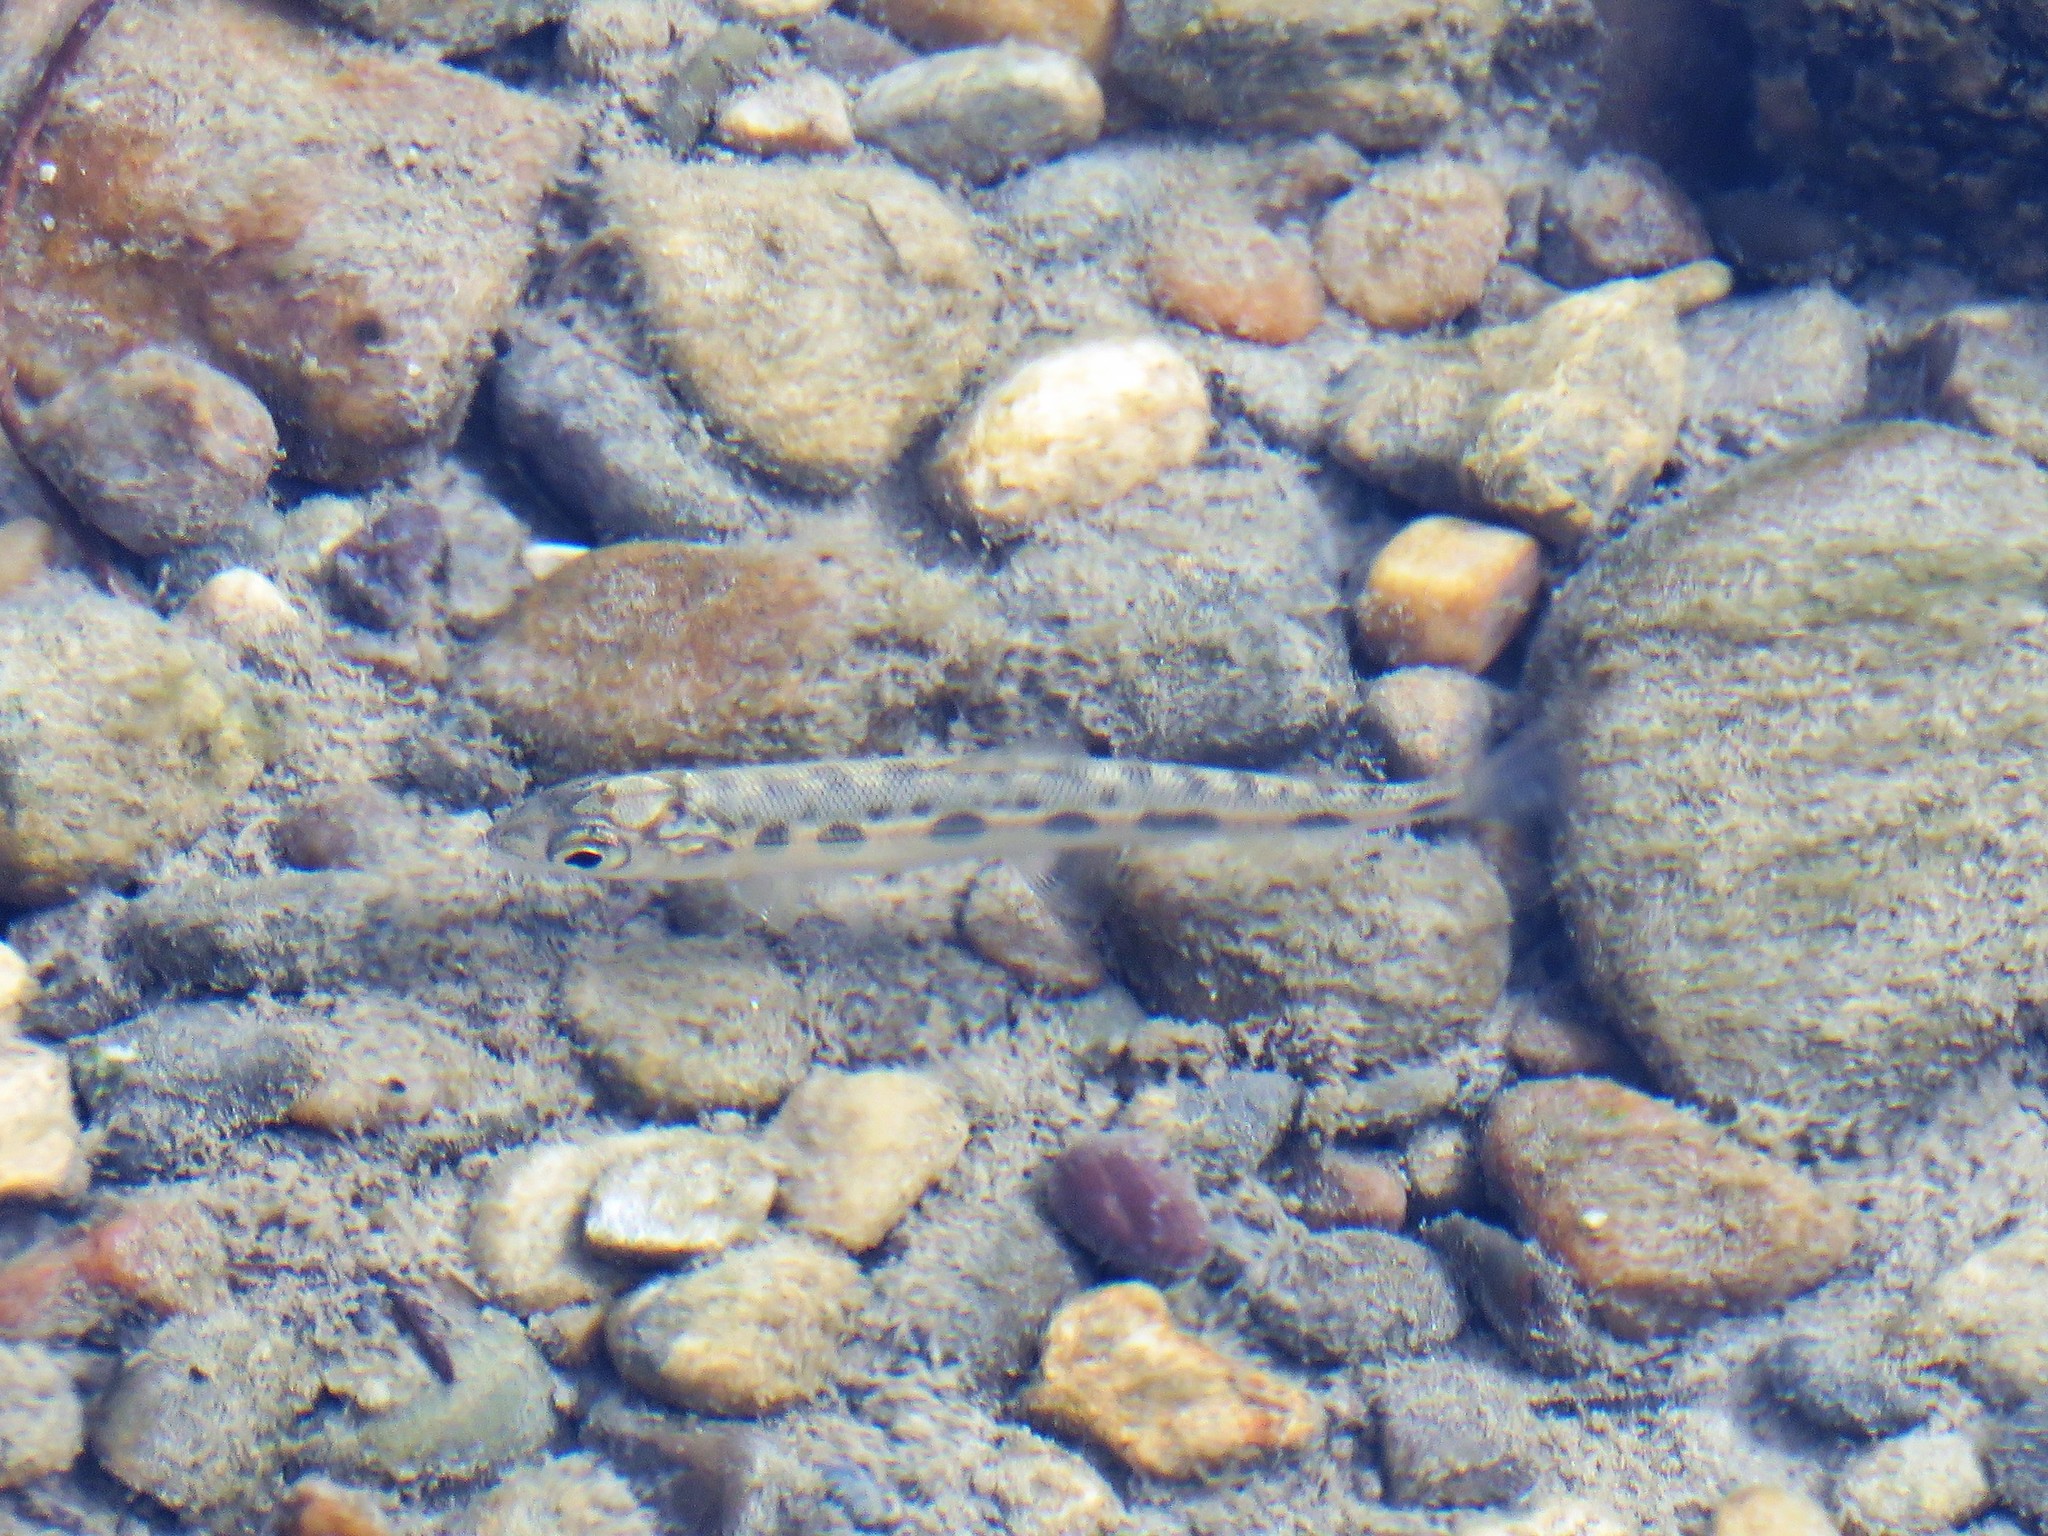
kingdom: Animalia
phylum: Chordata
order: Salmoniformes
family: Salmonidae
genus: Prosopium
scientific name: Prosopium williamsoni
